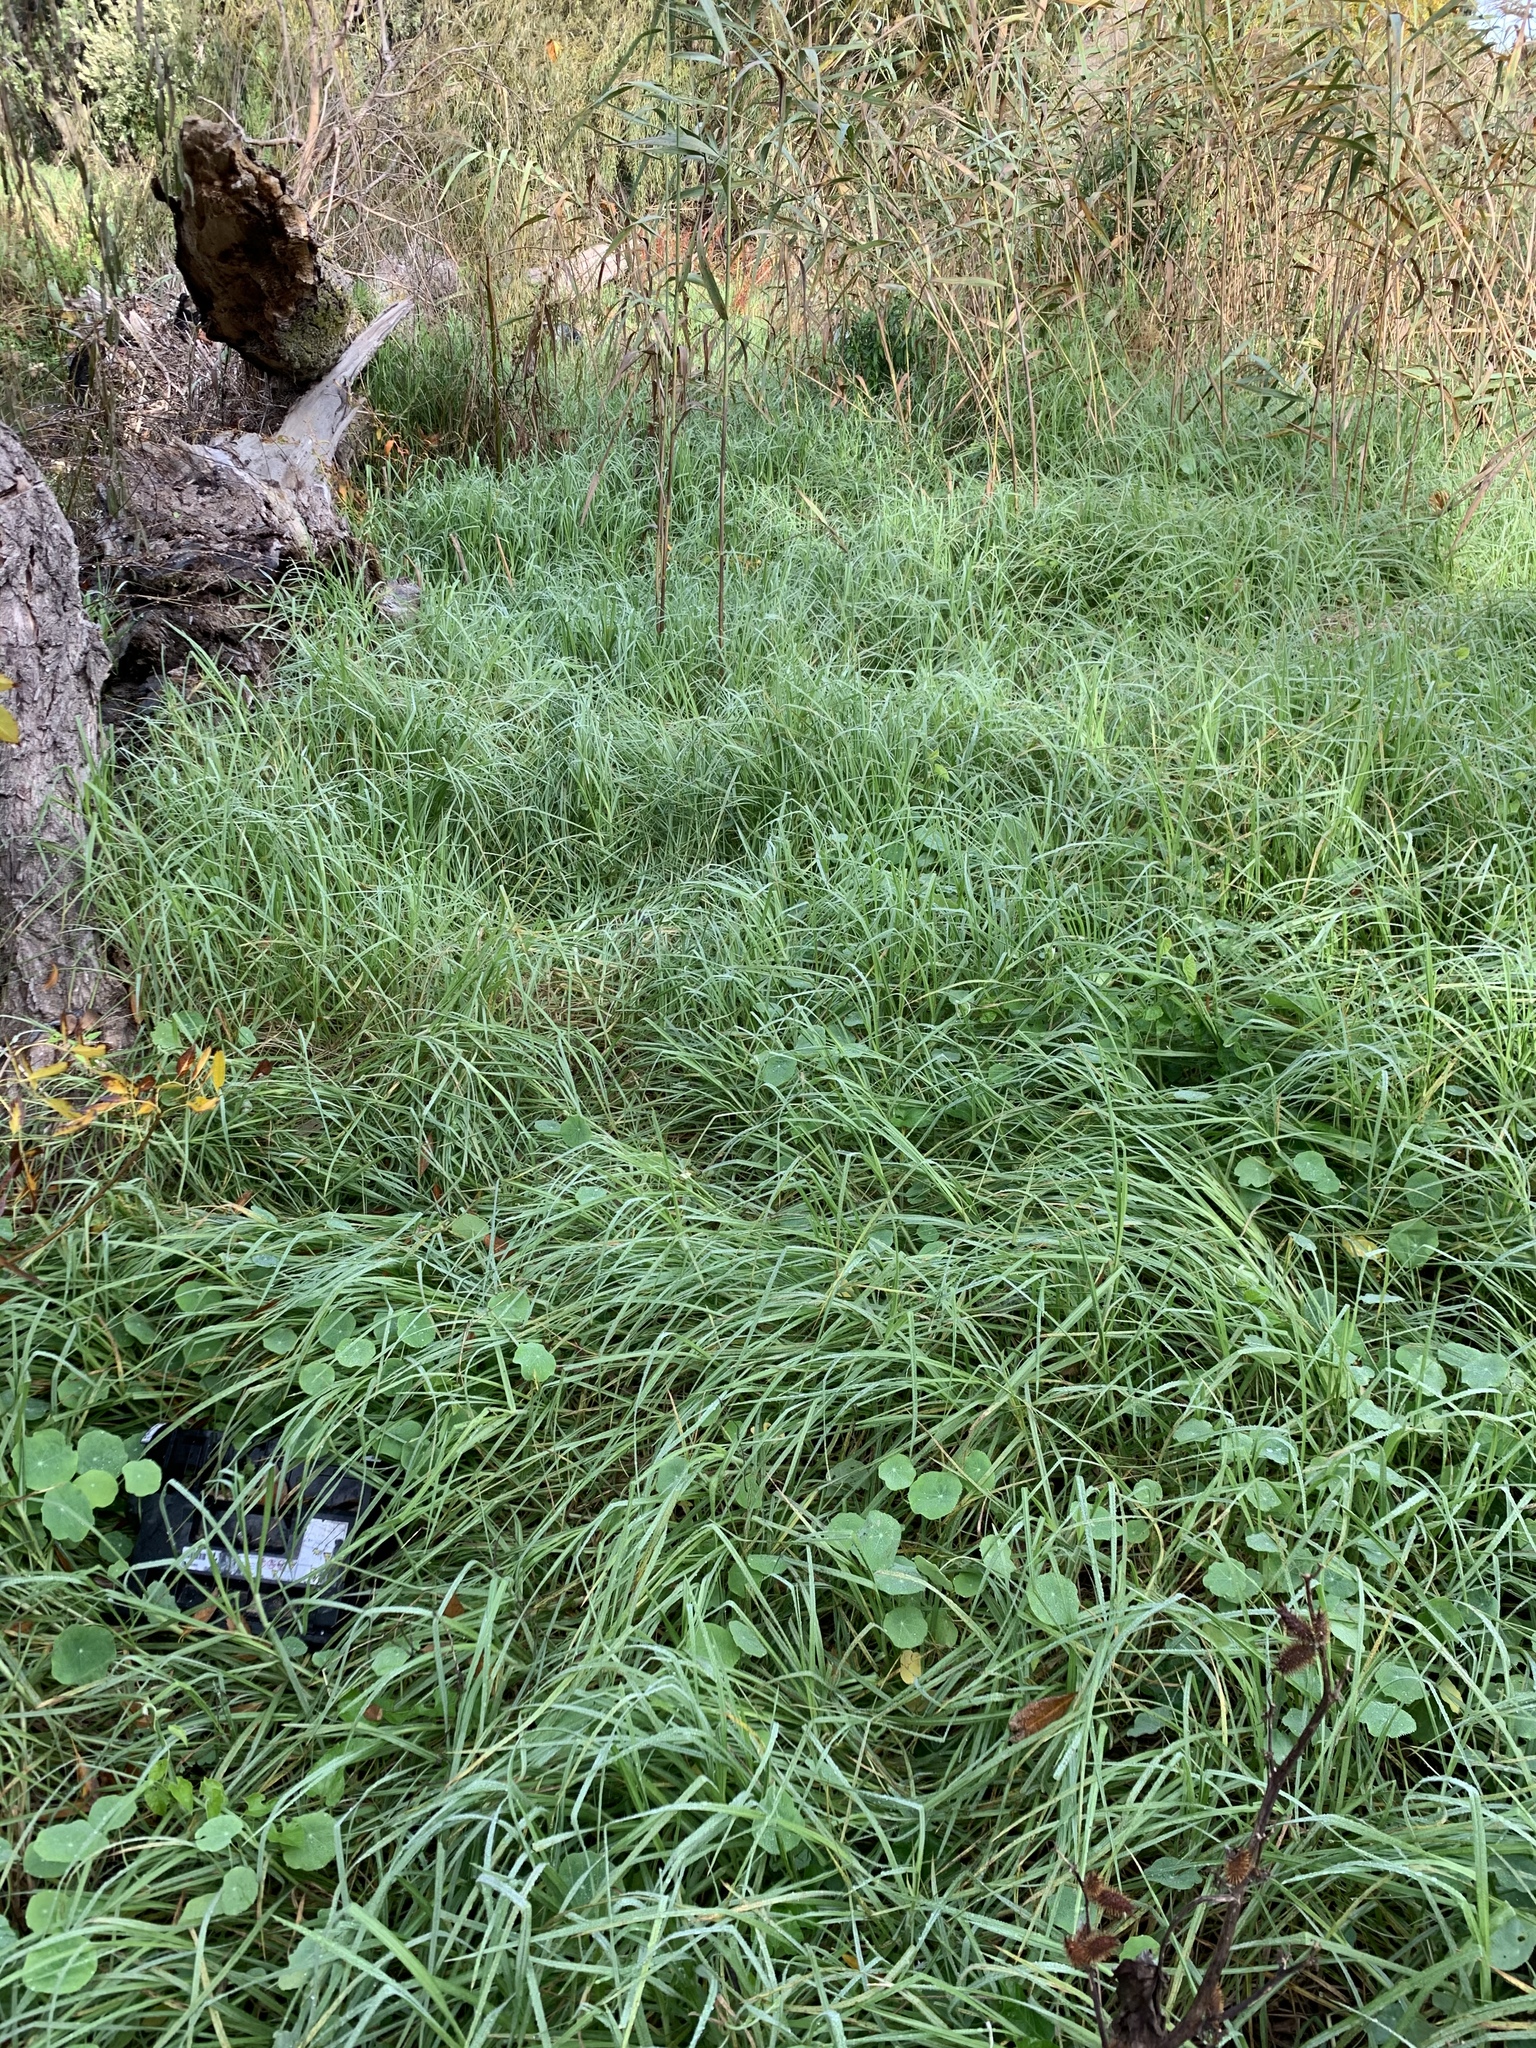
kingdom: Plantae
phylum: Tracheophyta
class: Liliopsida
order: Poales
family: Poaceae
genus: Cenchrus
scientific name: Cenchrus clandestinus
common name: Kikuyugrass
